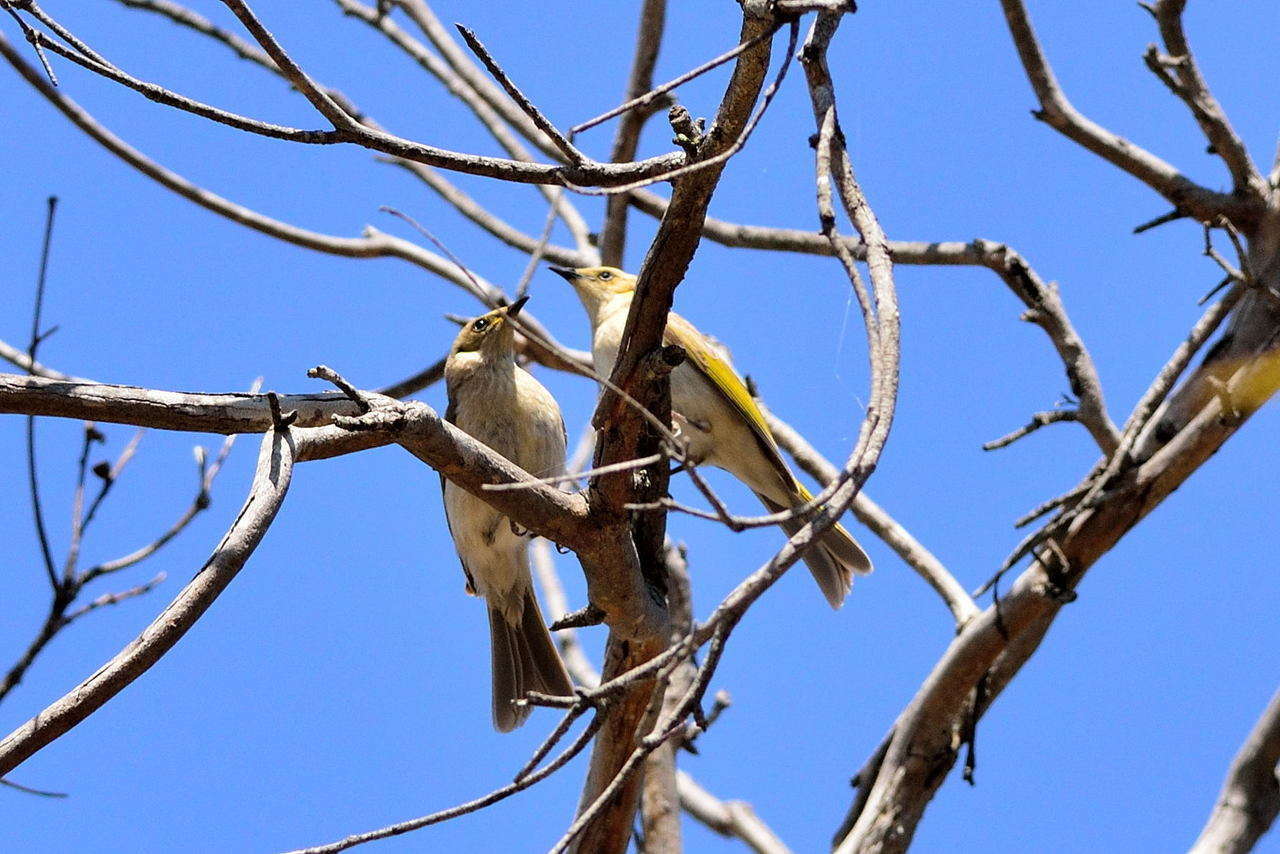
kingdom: Animalia
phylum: Chordata
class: Aves
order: Passeriformes
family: Meliphagidae
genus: Ptilotula
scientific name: Ptilotula fusca
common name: Fuscous honeyeater
